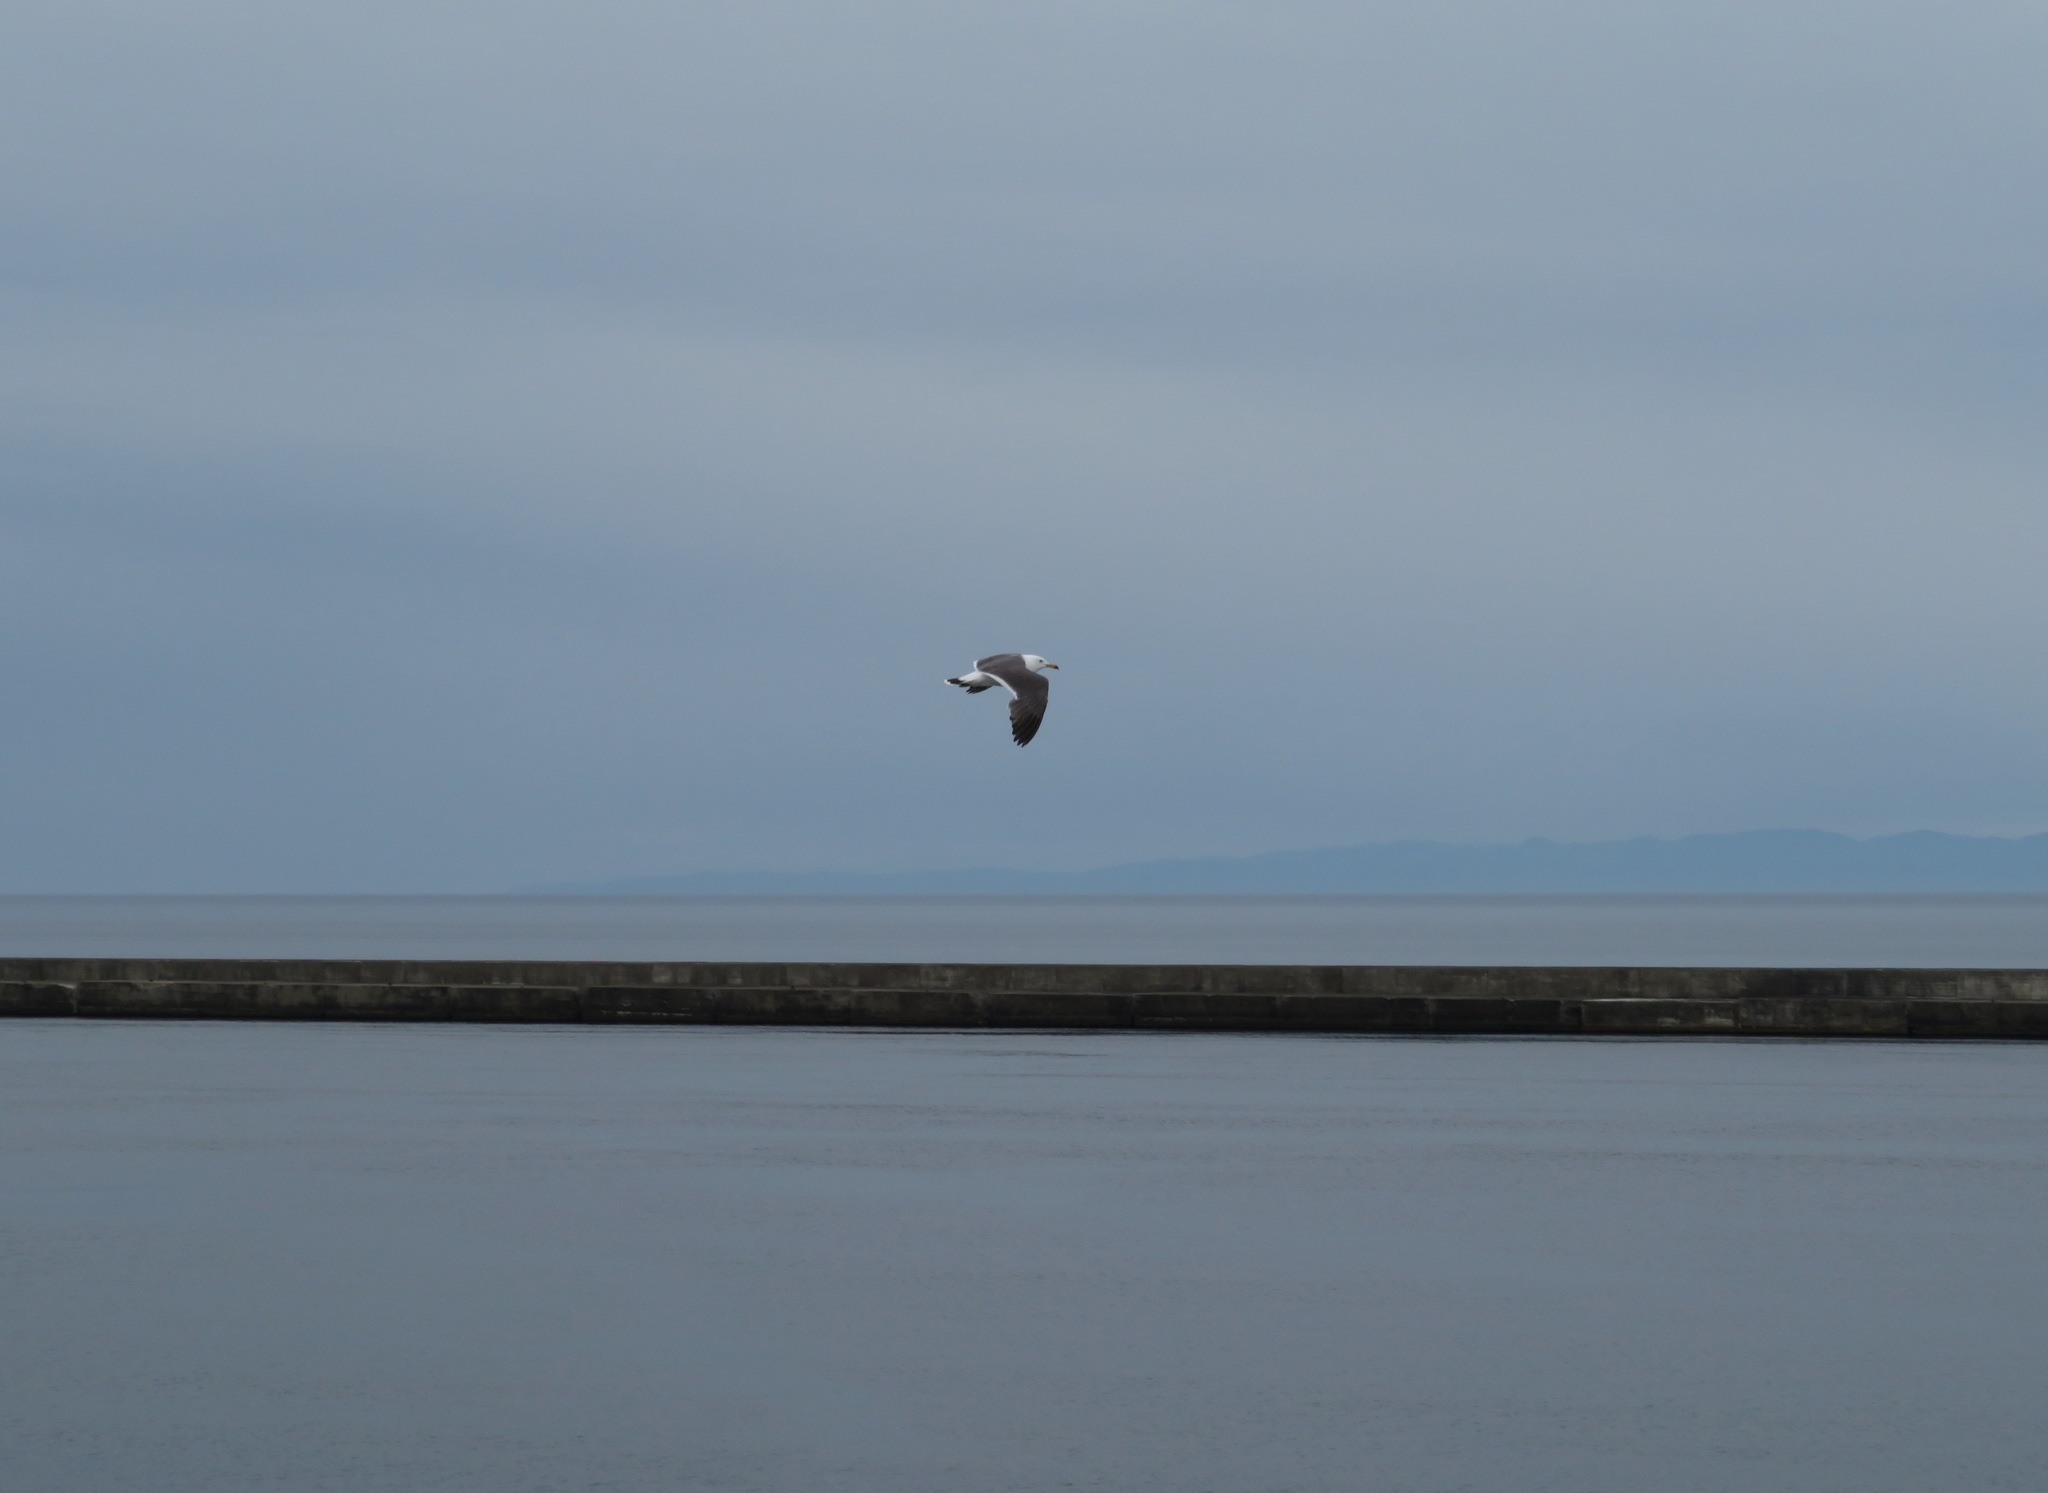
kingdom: Animalia
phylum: Chordata
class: Aves
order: Charadriiformes
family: Laridae
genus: Larus
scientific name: Larus crassirostris
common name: Black-tailed gull
